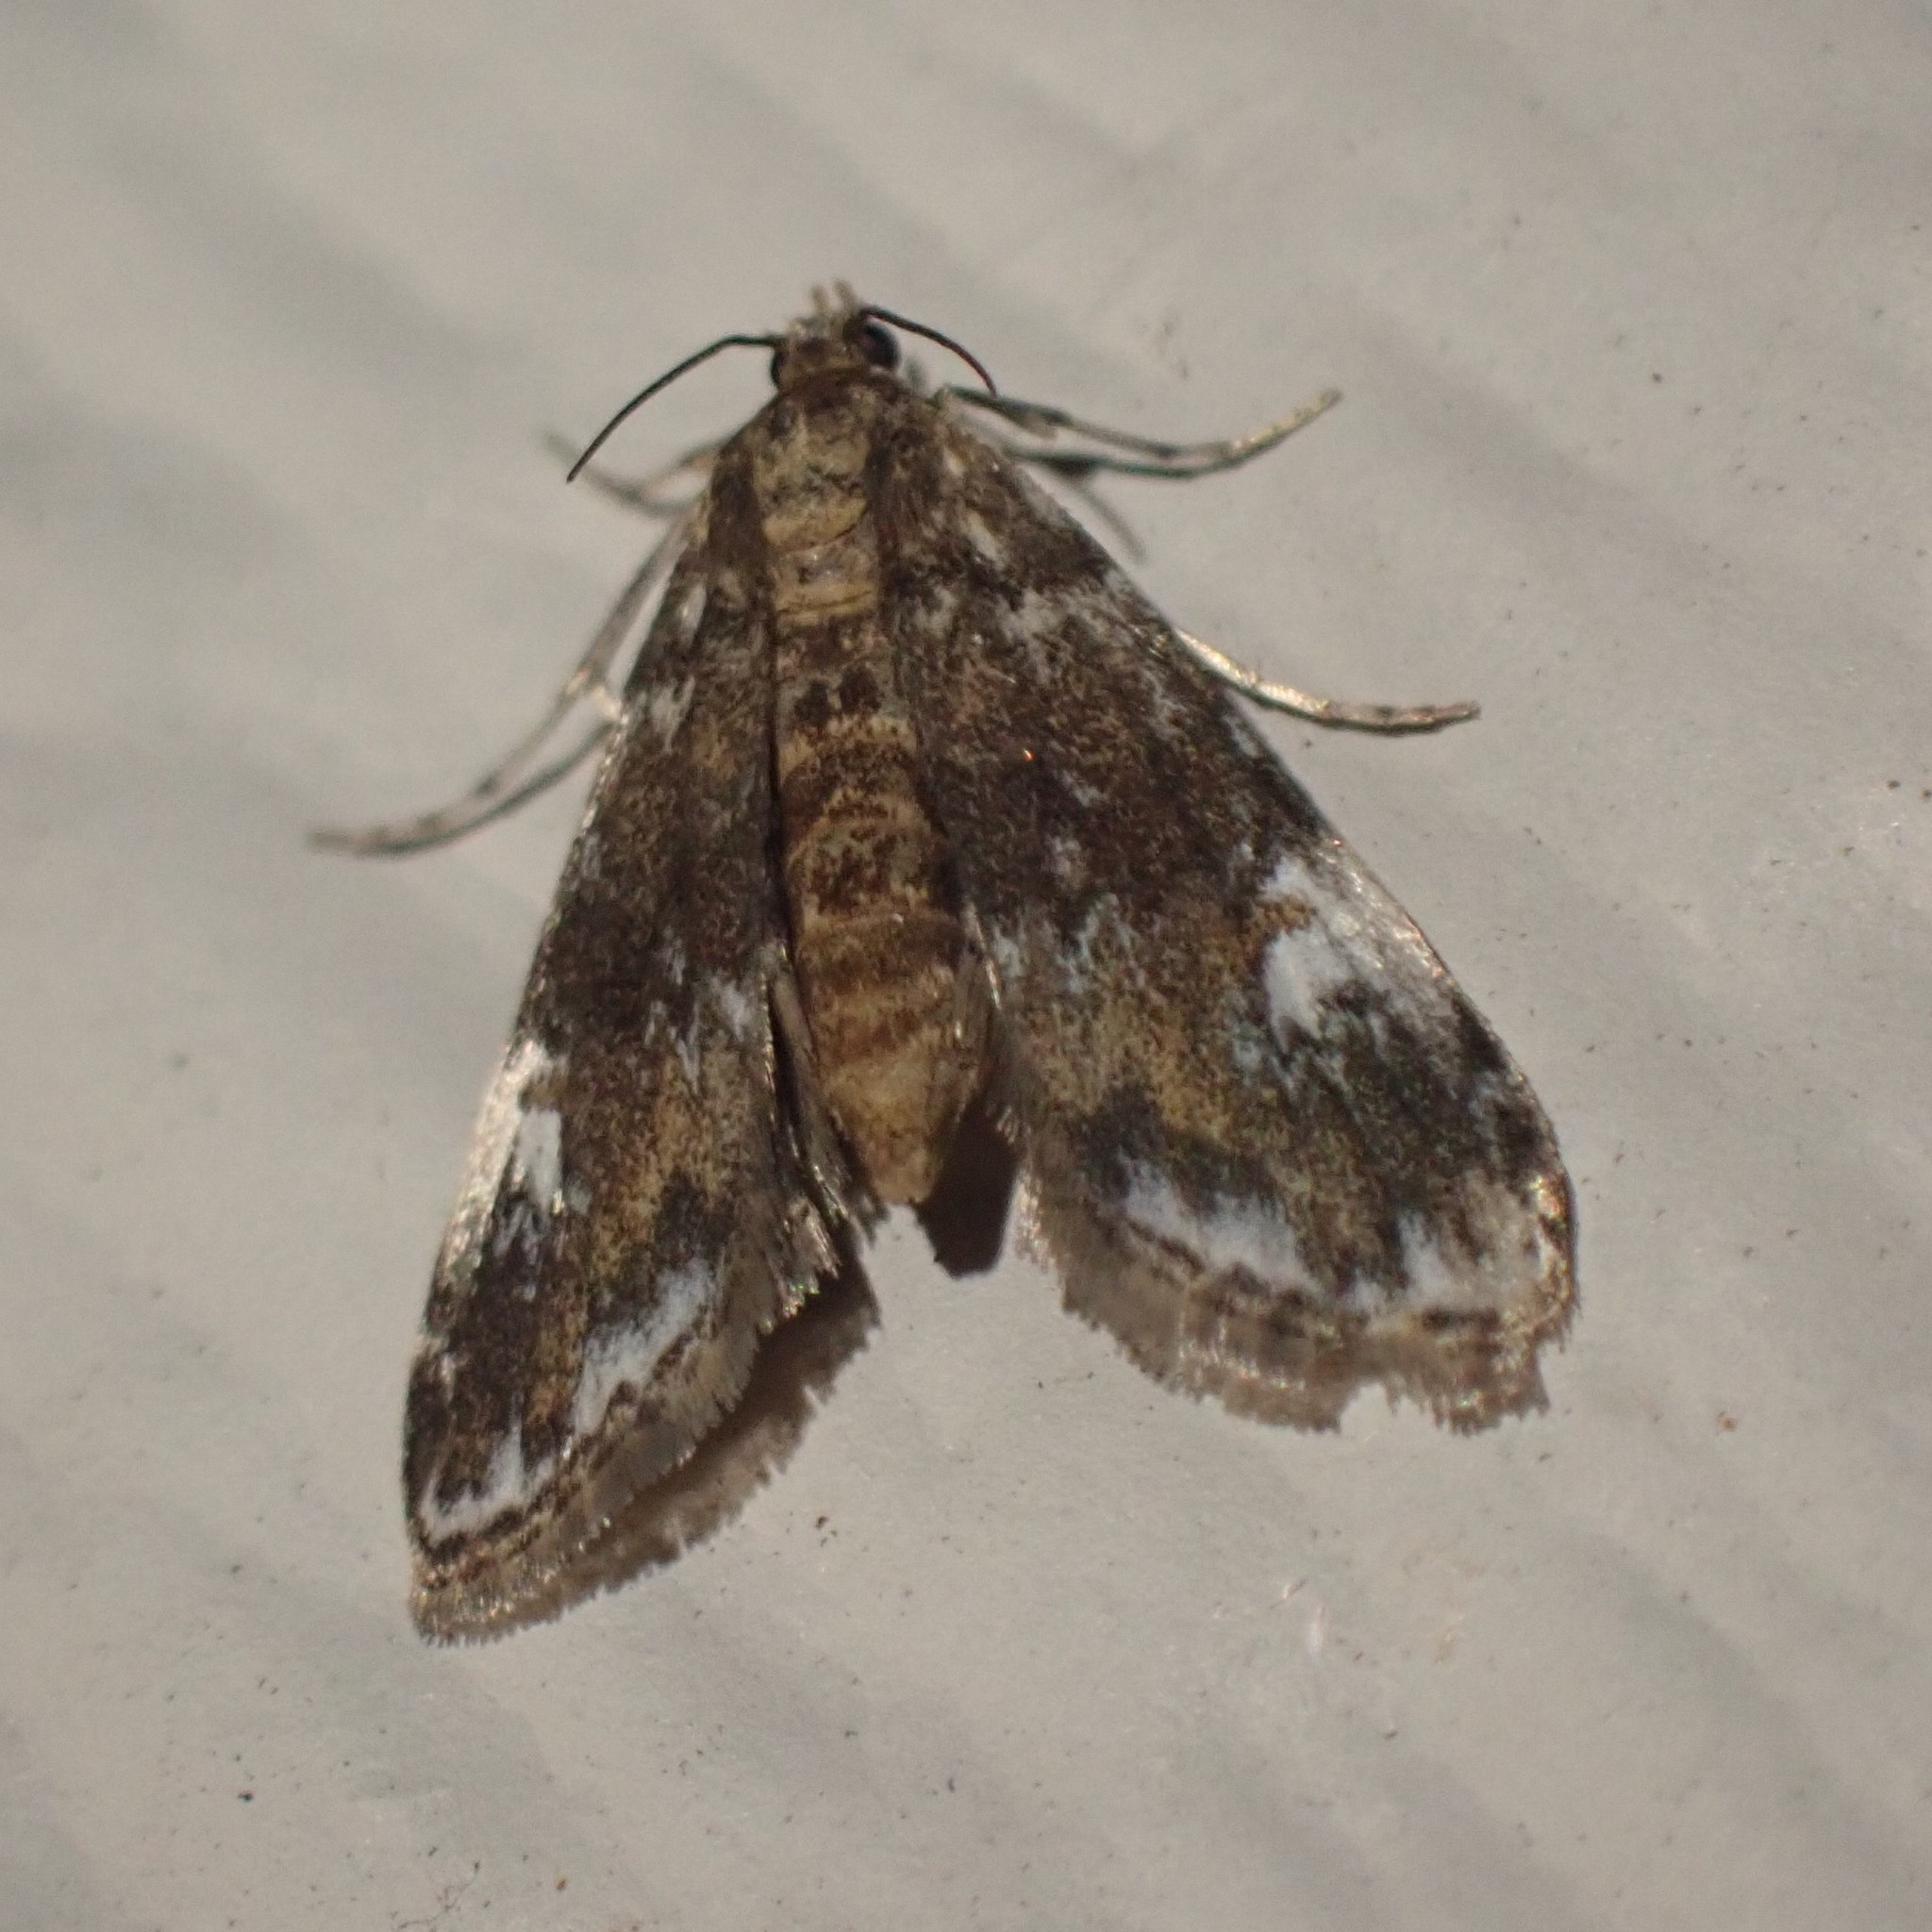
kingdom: Animalia
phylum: Arthropoda
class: Insecta
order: Lepidoptera
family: Crambidae
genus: Elophila
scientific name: Elophila obliteralis
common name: Waterlily leafcutter moth
